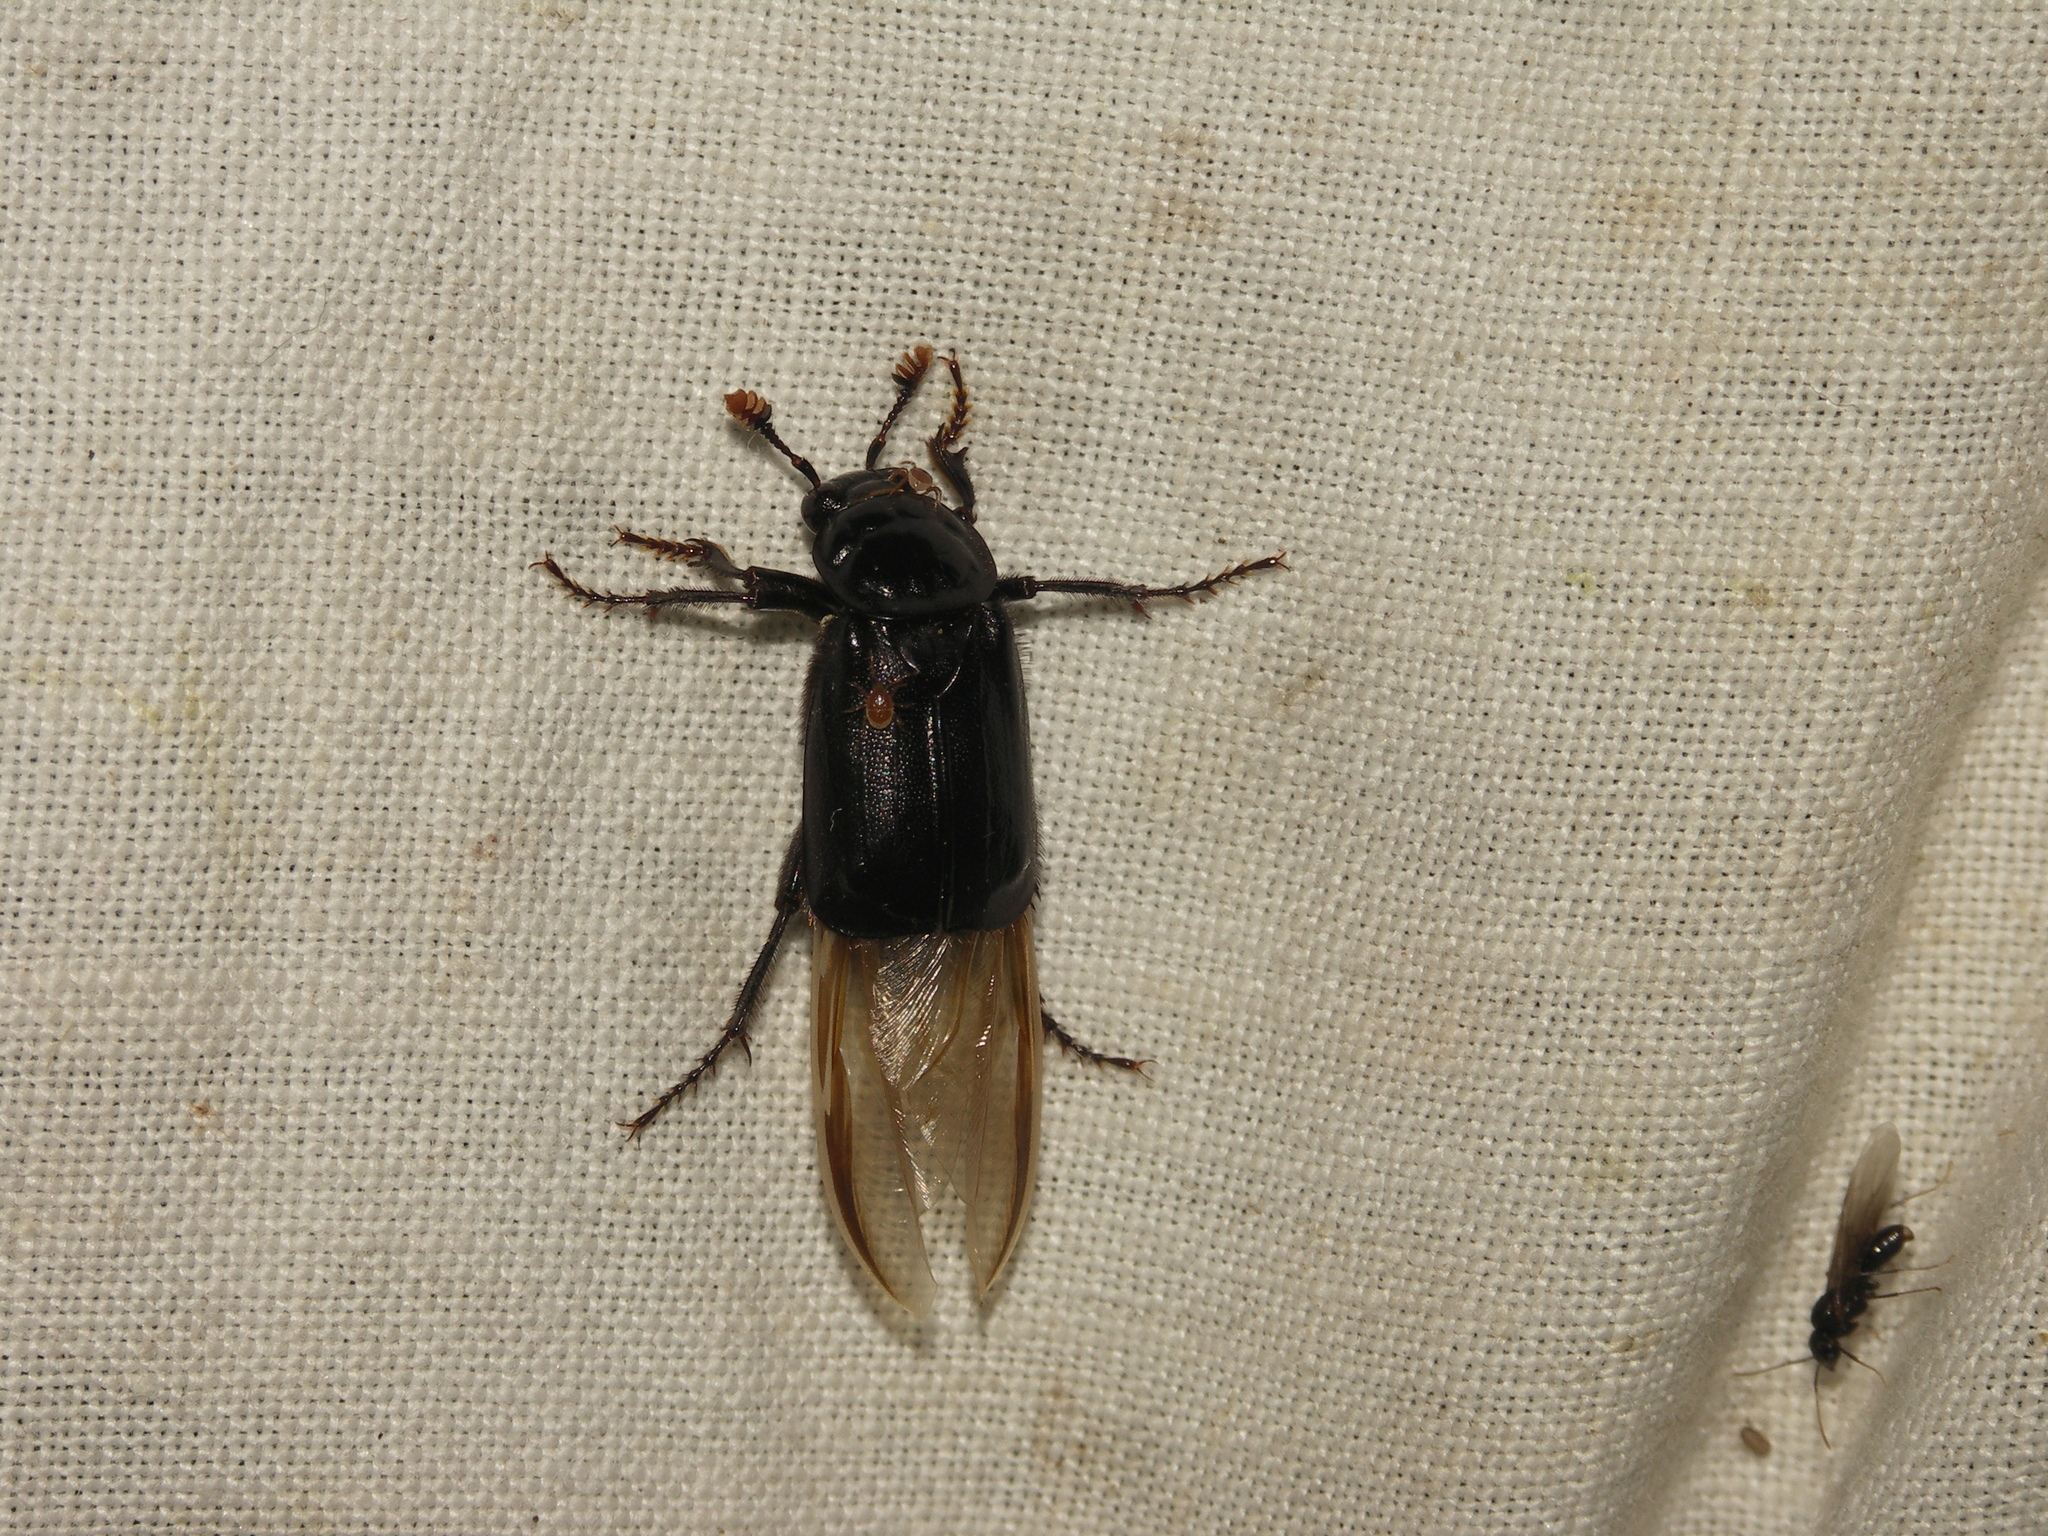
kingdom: Animalia
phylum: Arthropoda
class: Insecta
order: Coleoptera
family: Staphylinidae
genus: Nicrophorus
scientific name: Nicrophorus humator
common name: Black sexton beetle
